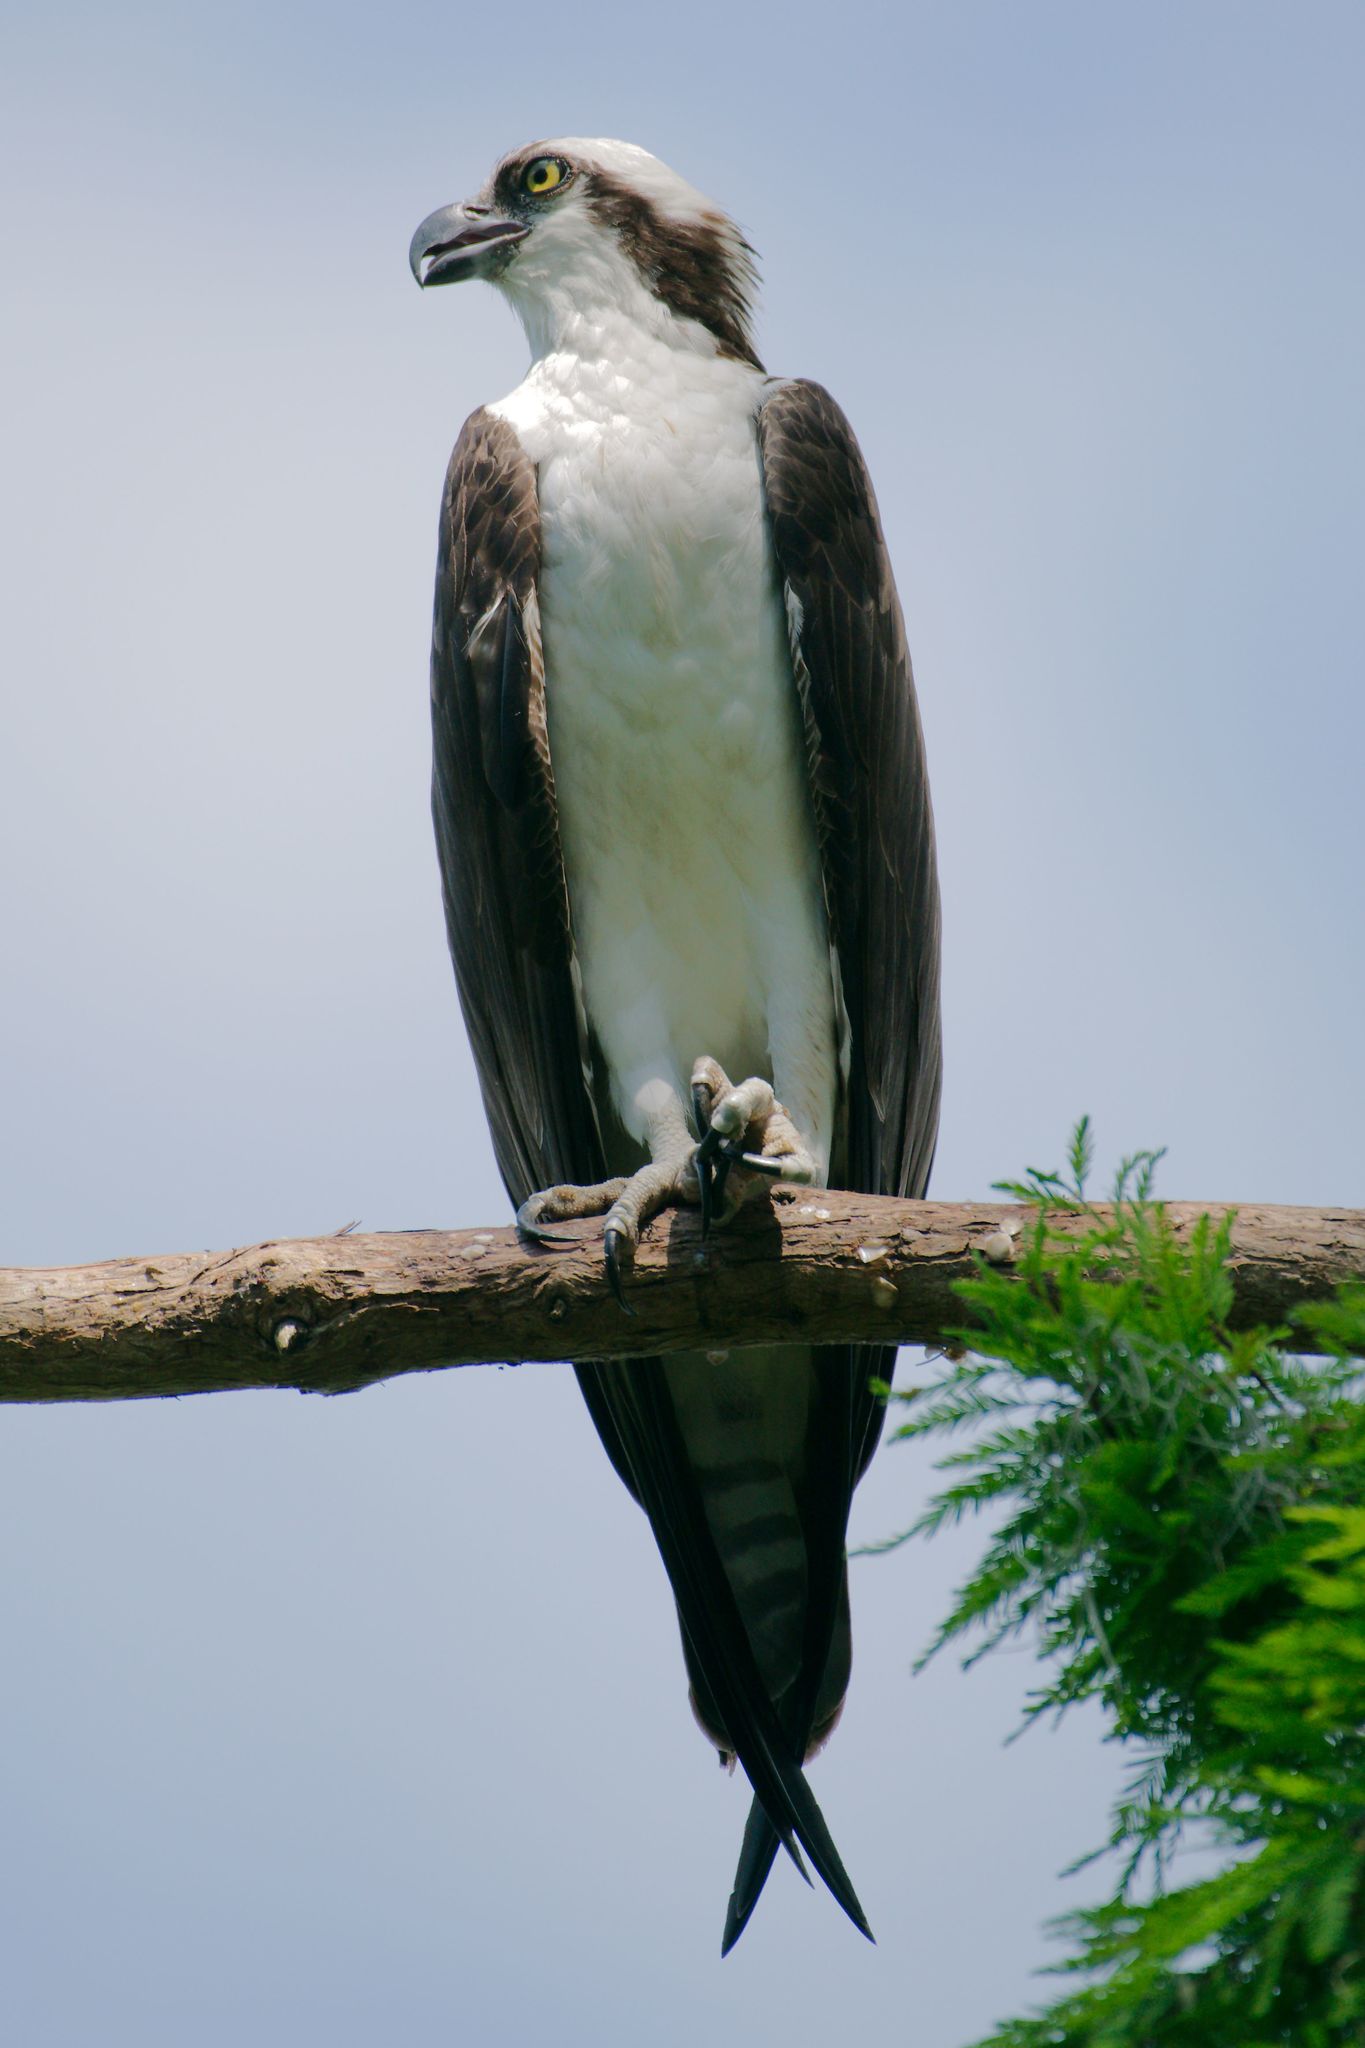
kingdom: Animalia
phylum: Chordata
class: Aves
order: Accipitriformes
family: Pandionidae
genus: Pandion
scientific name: Pandion haliaetus
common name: Osprey
